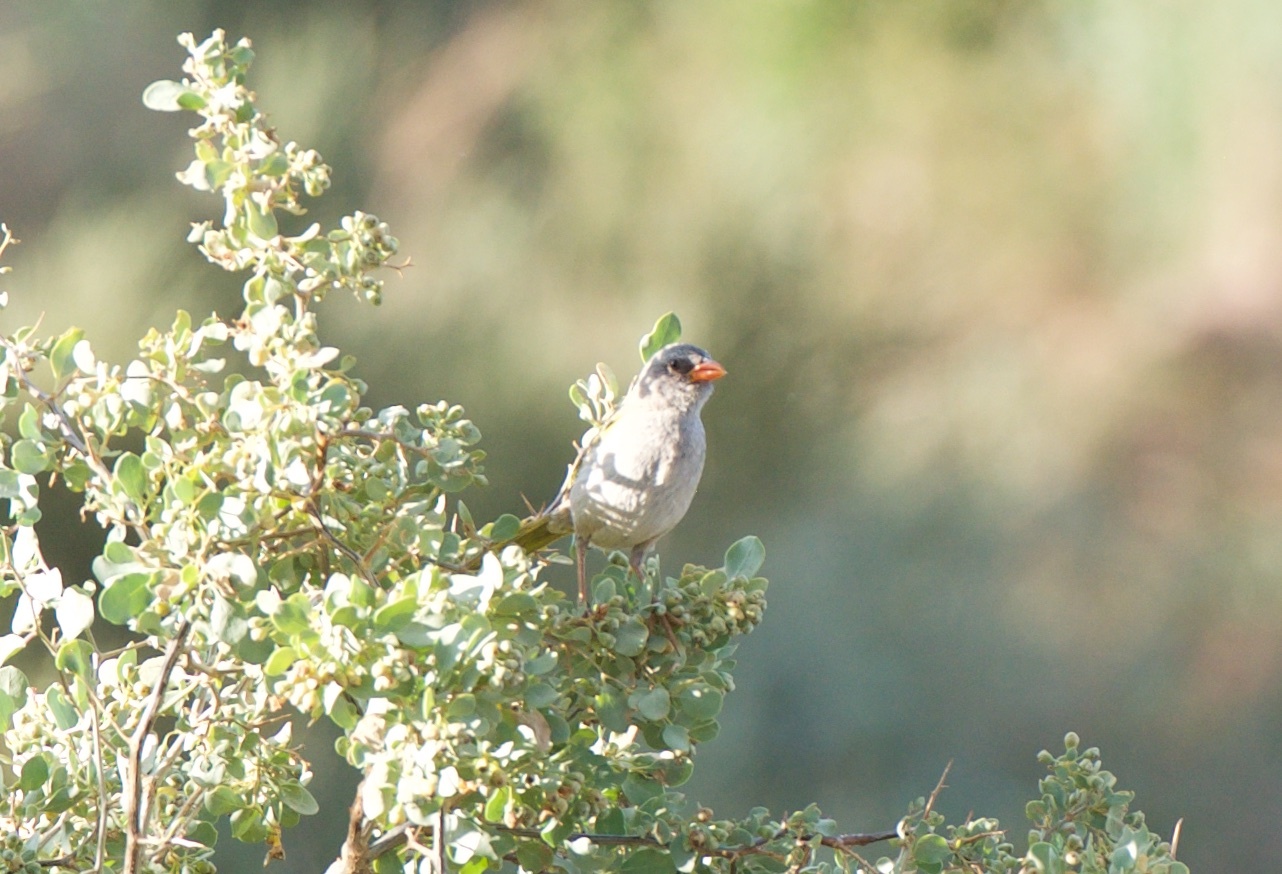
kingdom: Animalia
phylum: Chordata
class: Aves
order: Passeriformes
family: Thraupidae
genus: Embernagra
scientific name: Embernagra platensis
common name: Pampa finch
